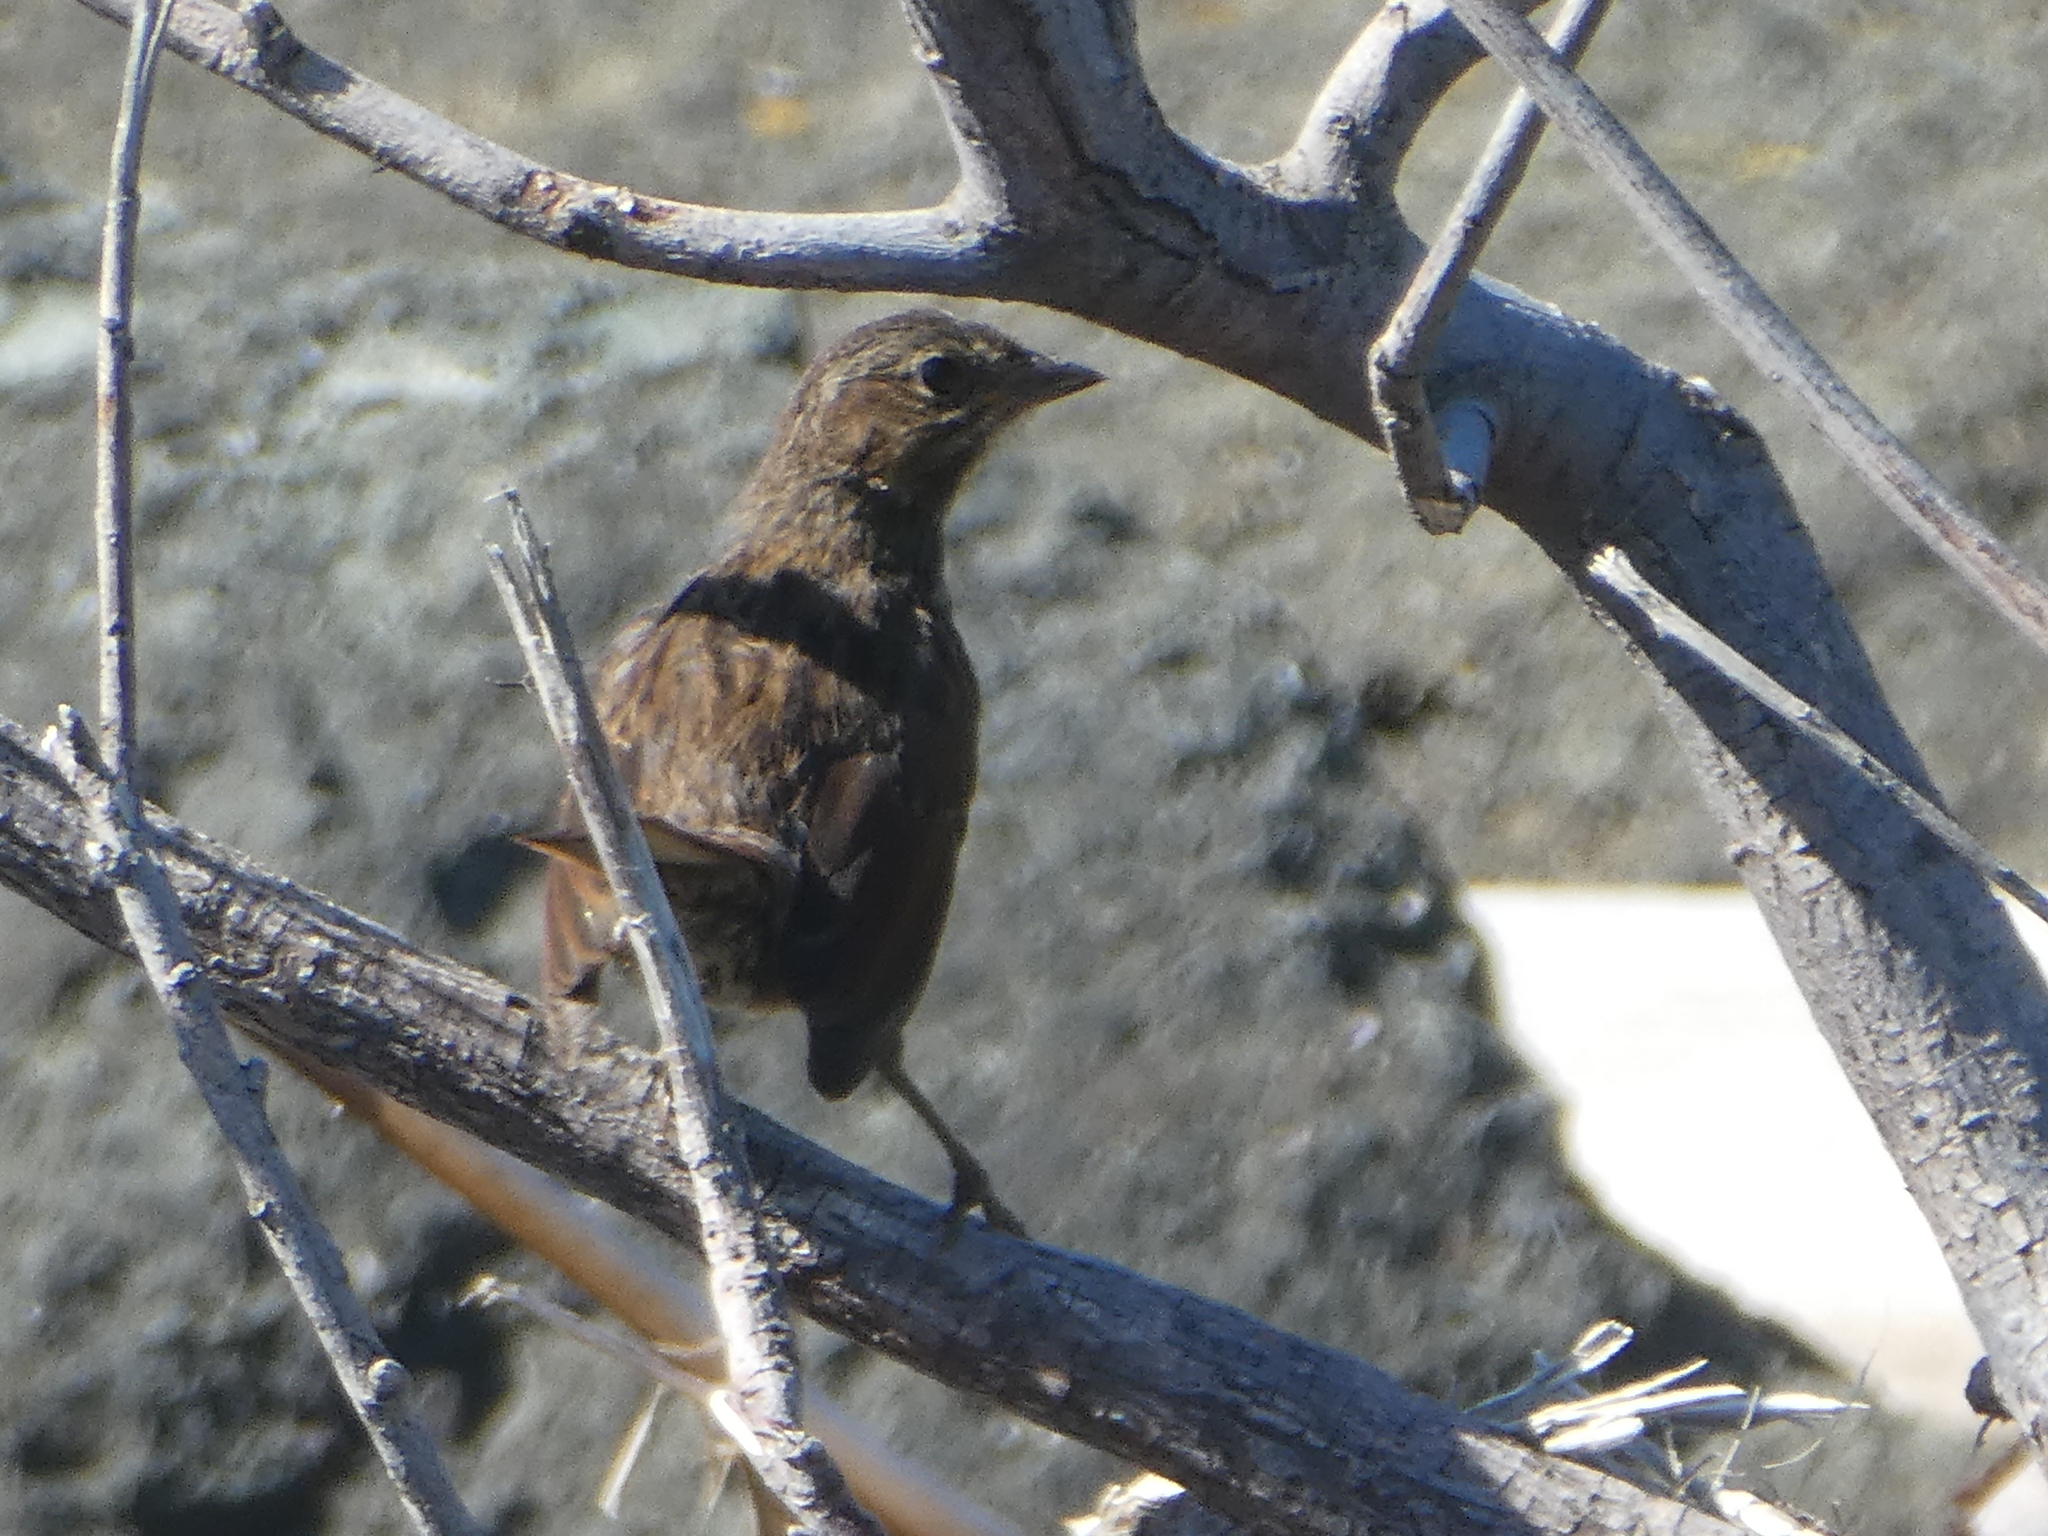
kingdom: Animalia
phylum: Chordata
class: Aves
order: Passeriformes
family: Passerellidae
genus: Melospiza
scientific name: Melospiza melodia
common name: Song sparrow
